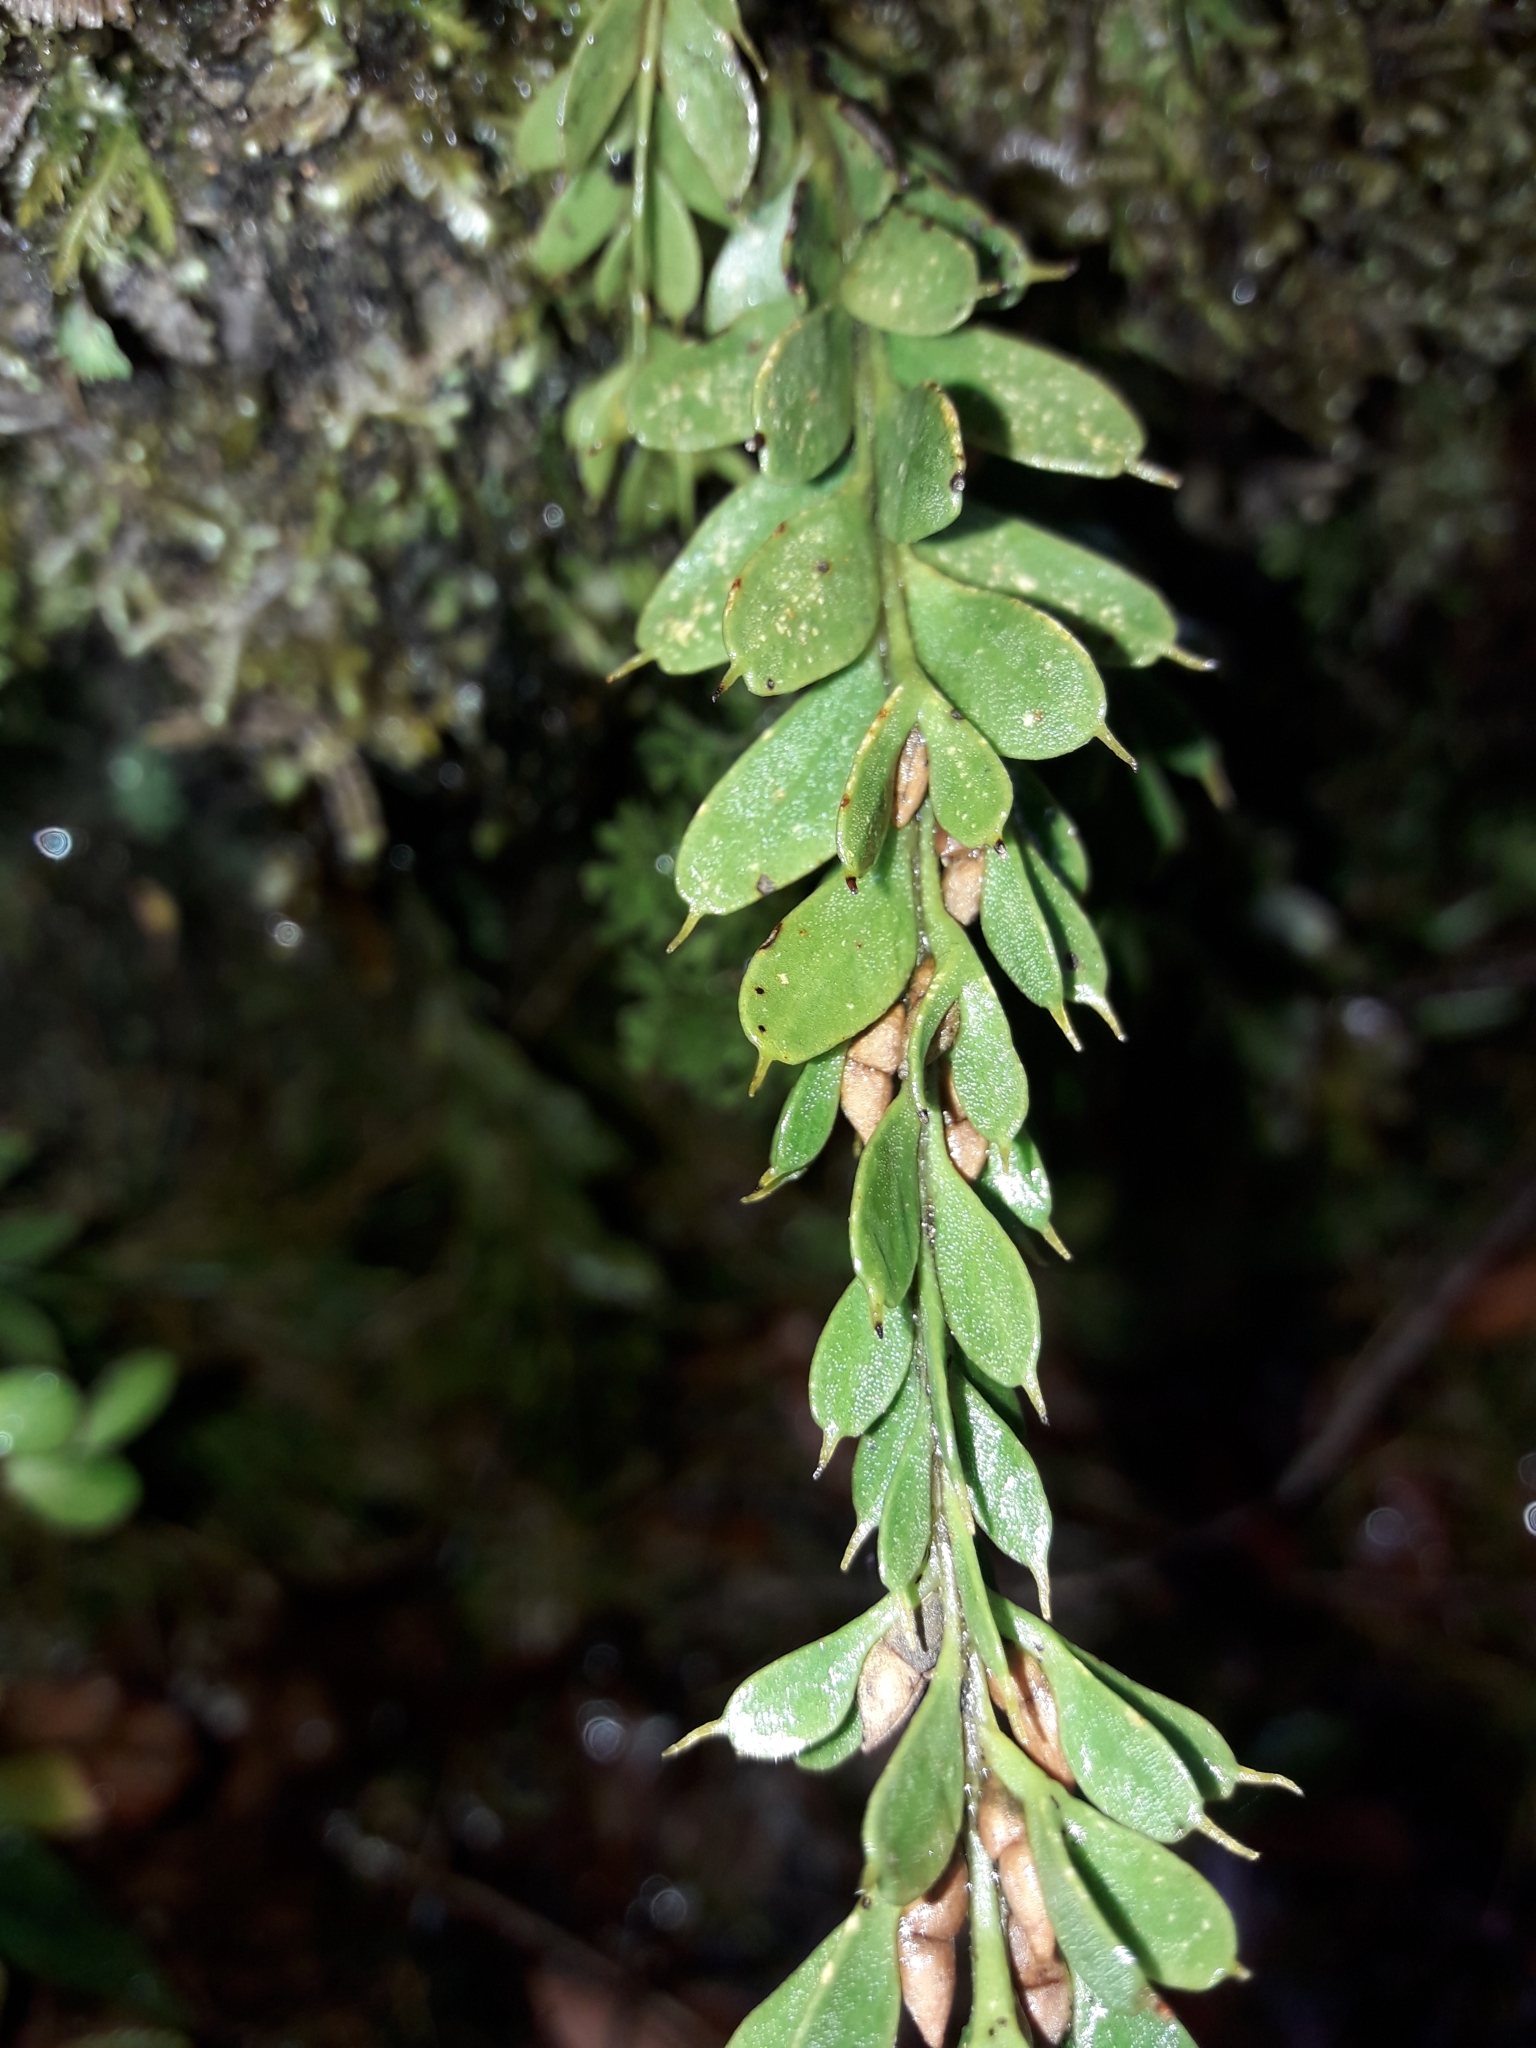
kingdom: Plantae
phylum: Tracheophyta
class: Polypodiopsida
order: Psilotales
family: Psilotaceae
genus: Tmesipteris
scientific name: Tmesipteris tannensis
